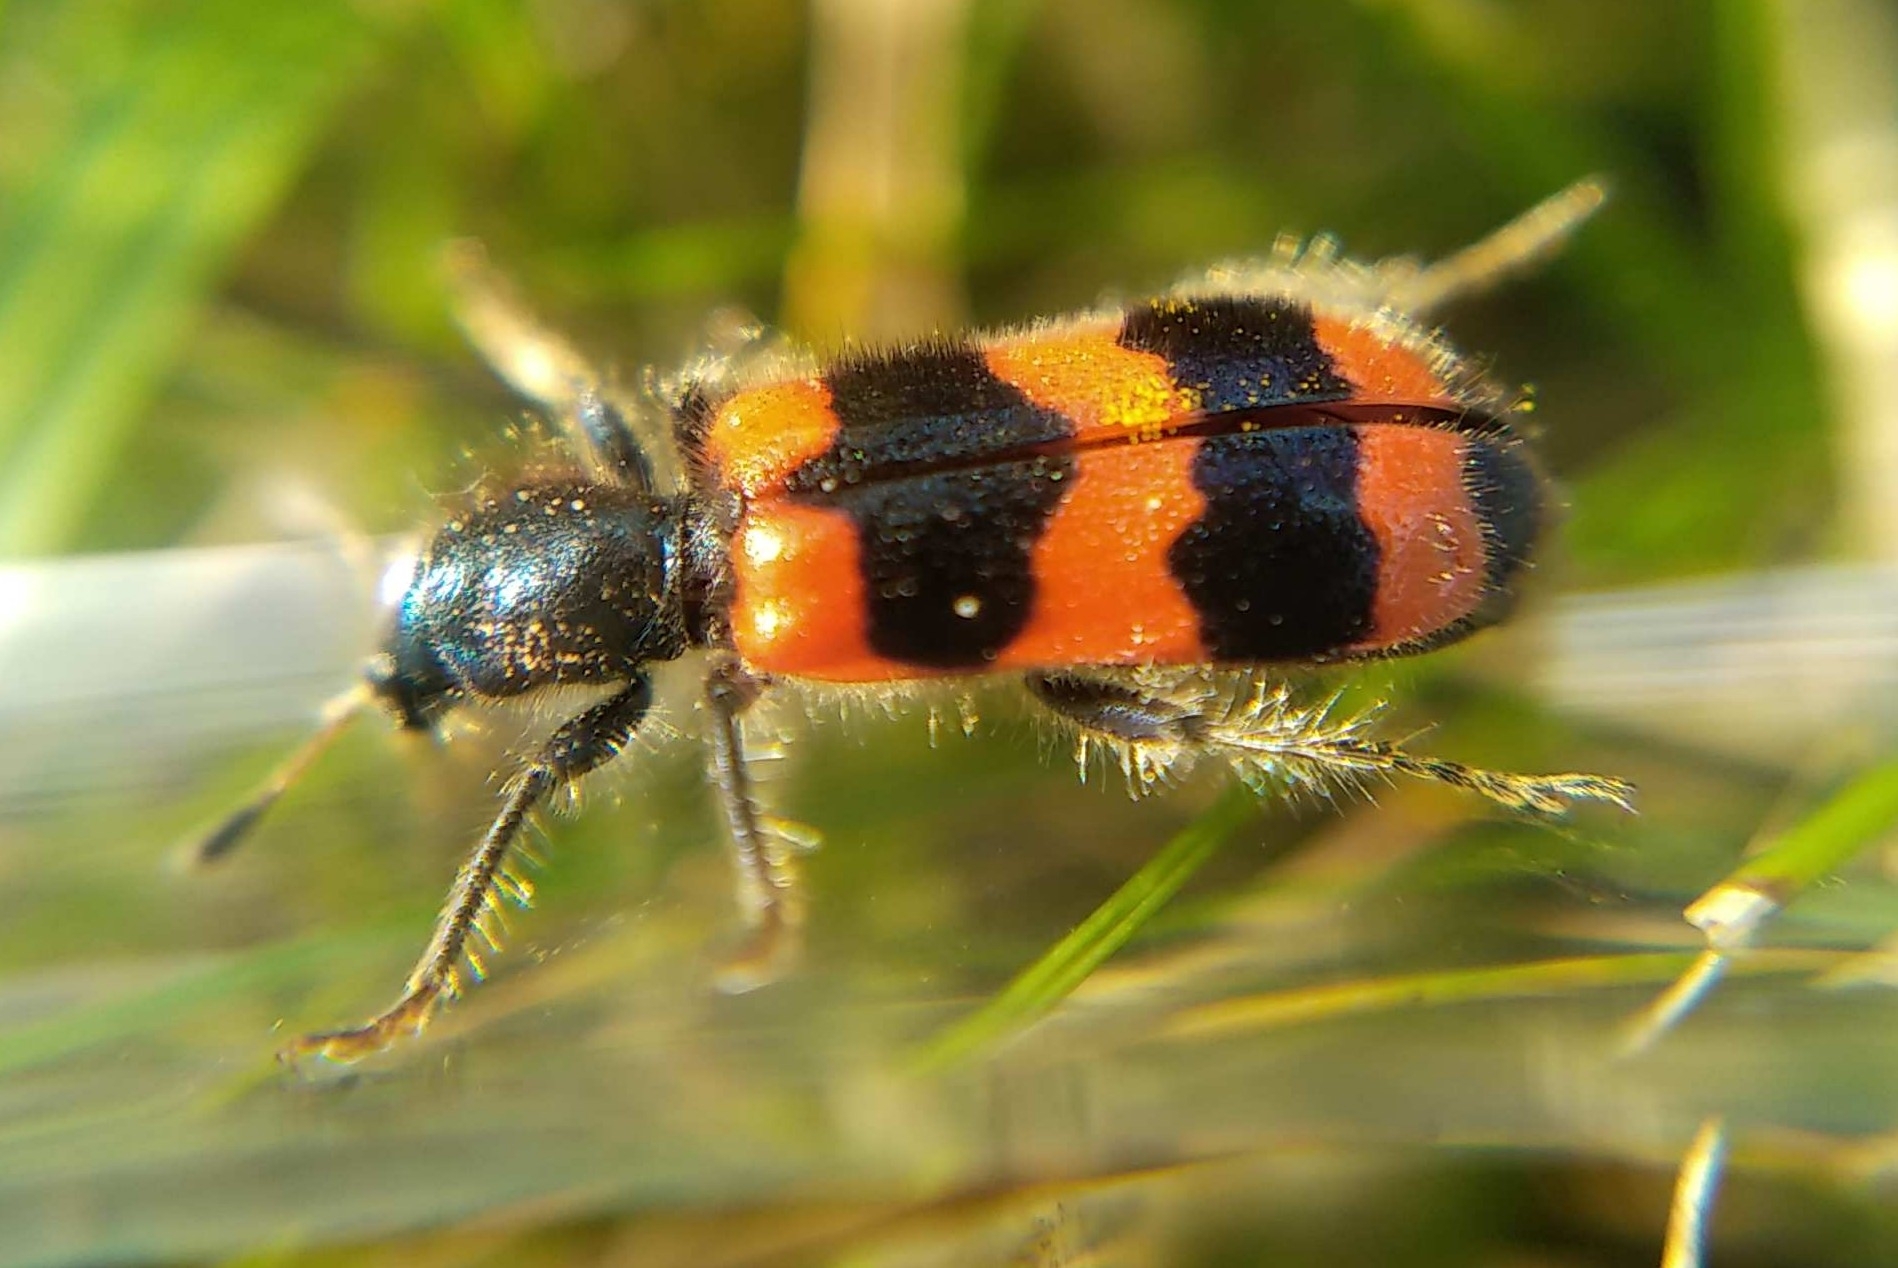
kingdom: Animalia
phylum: Arthropoda
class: Insecta
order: Coleoptera
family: Cleridae
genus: Trichodes
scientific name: Trichodes apiarius
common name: Bee-eating beetle
